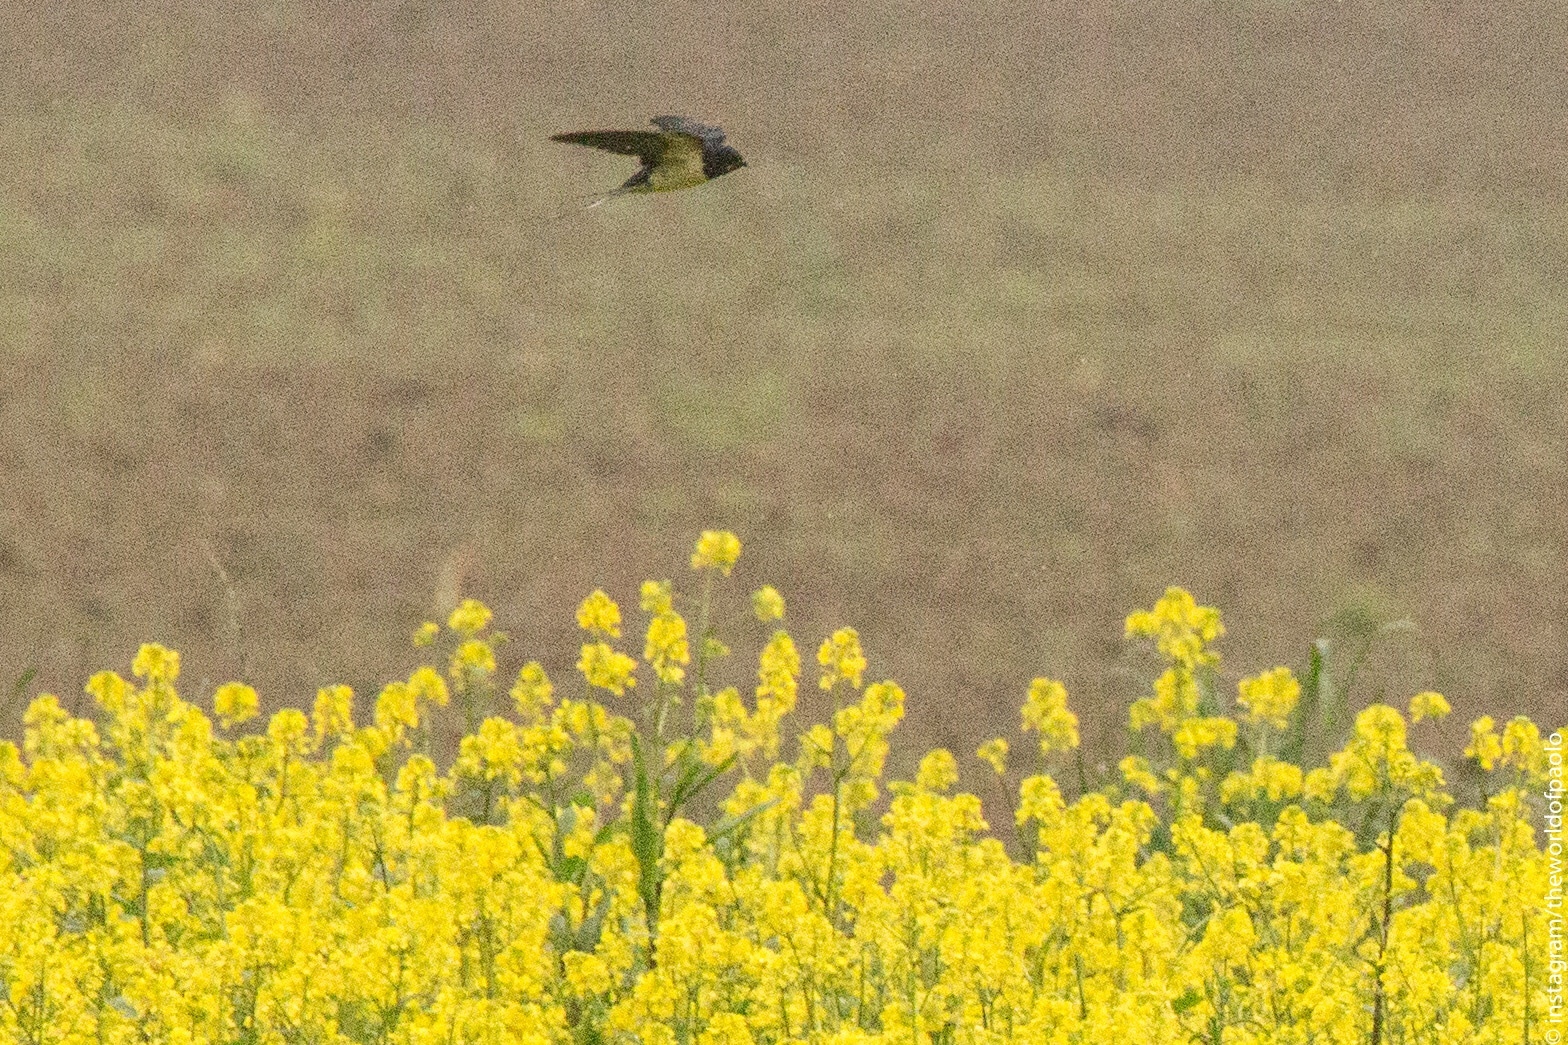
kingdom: Animalia
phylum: Chordata
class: Aves
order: Passeriformes
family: Hirundinidae
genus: Hirundo
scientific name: Hirundo rustica
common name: Barn swallow
